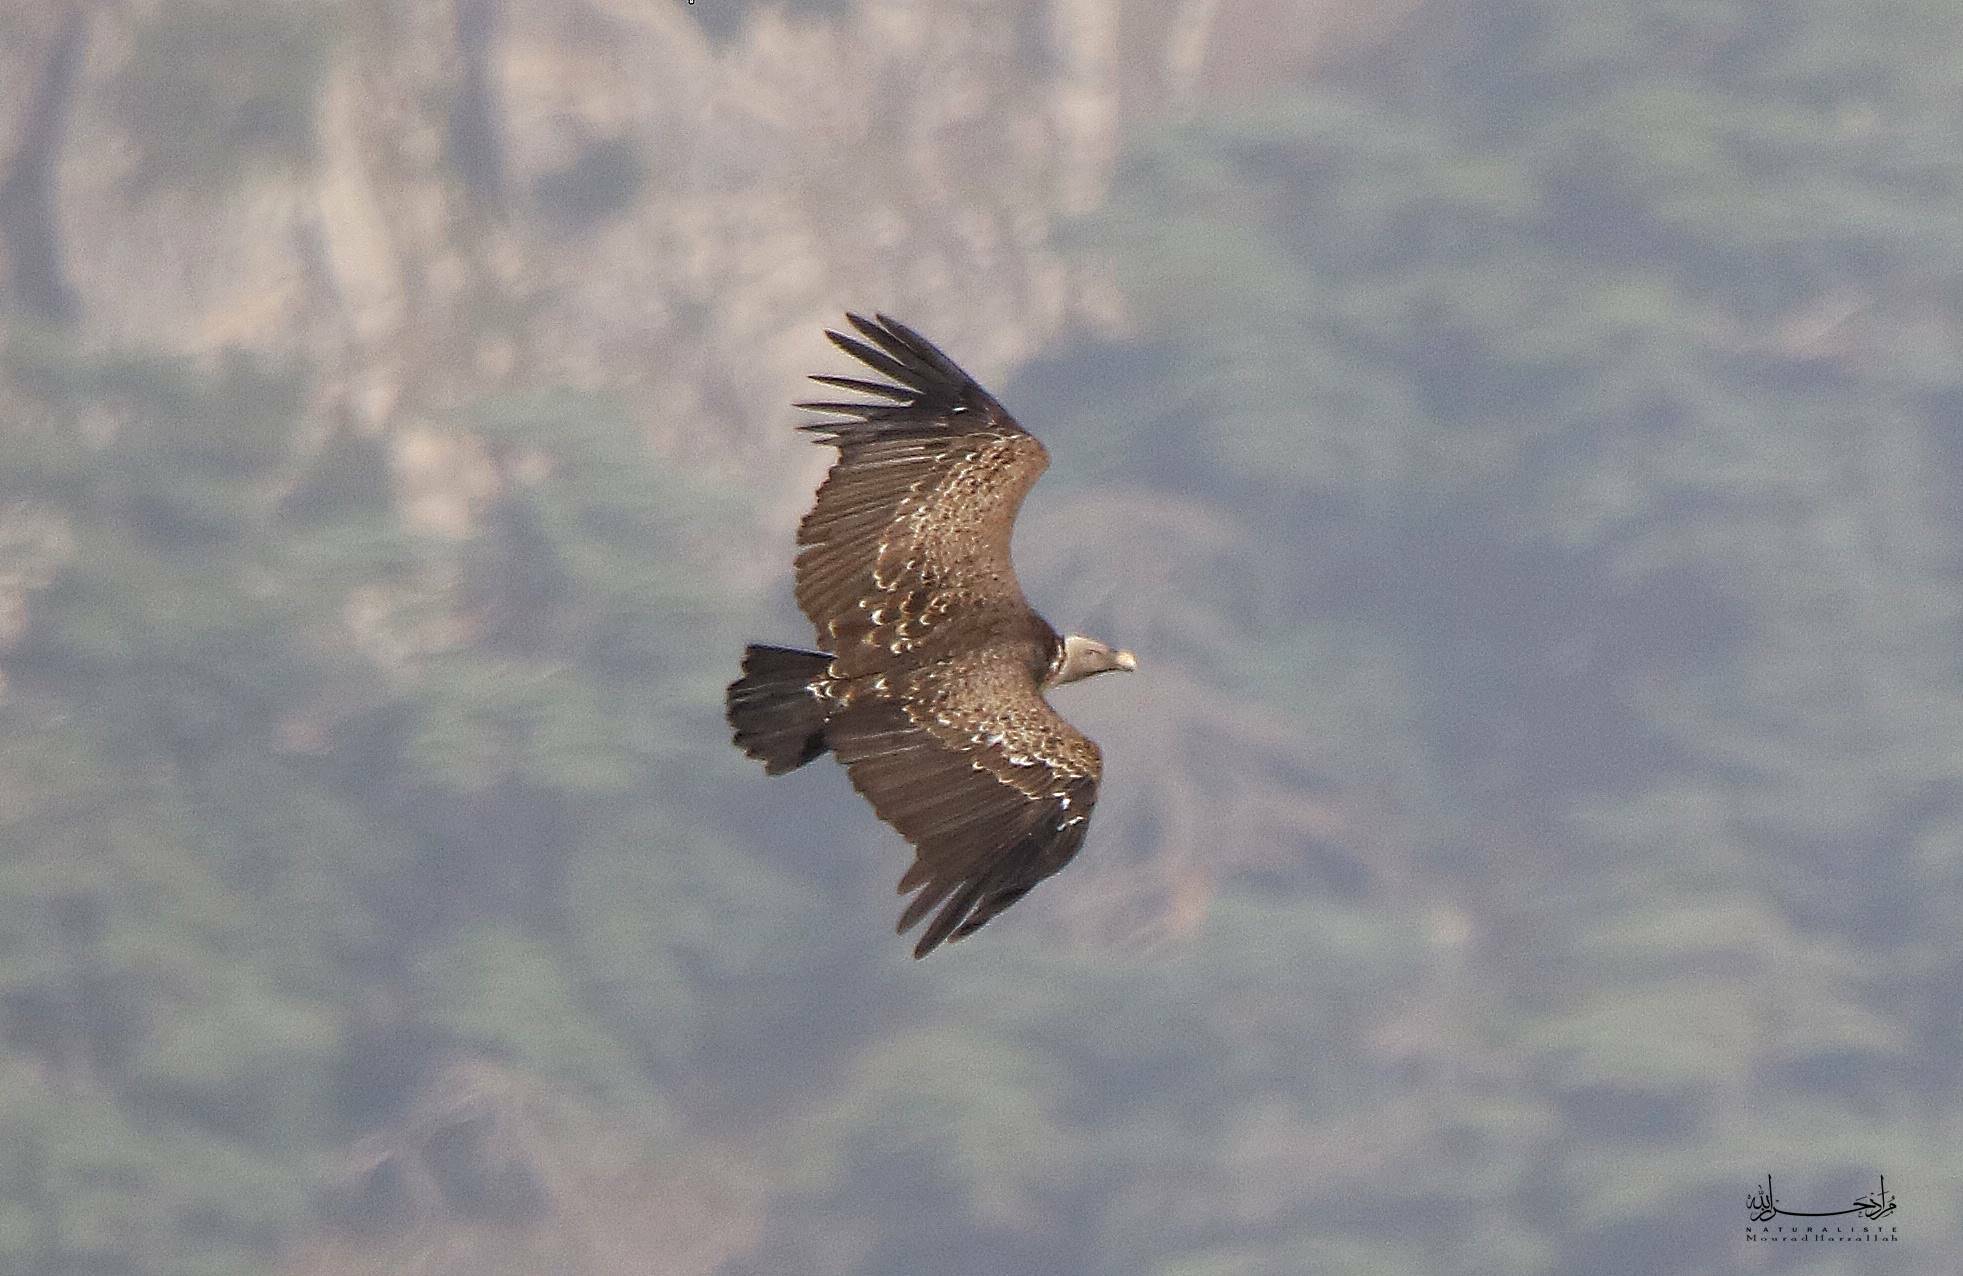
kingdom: Animalia
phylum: Chordata
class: Aves
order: Accipitriformes
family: Accipitridae
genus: Gyps
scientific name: Gyps rueppellii
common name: Rüppell's vulture
